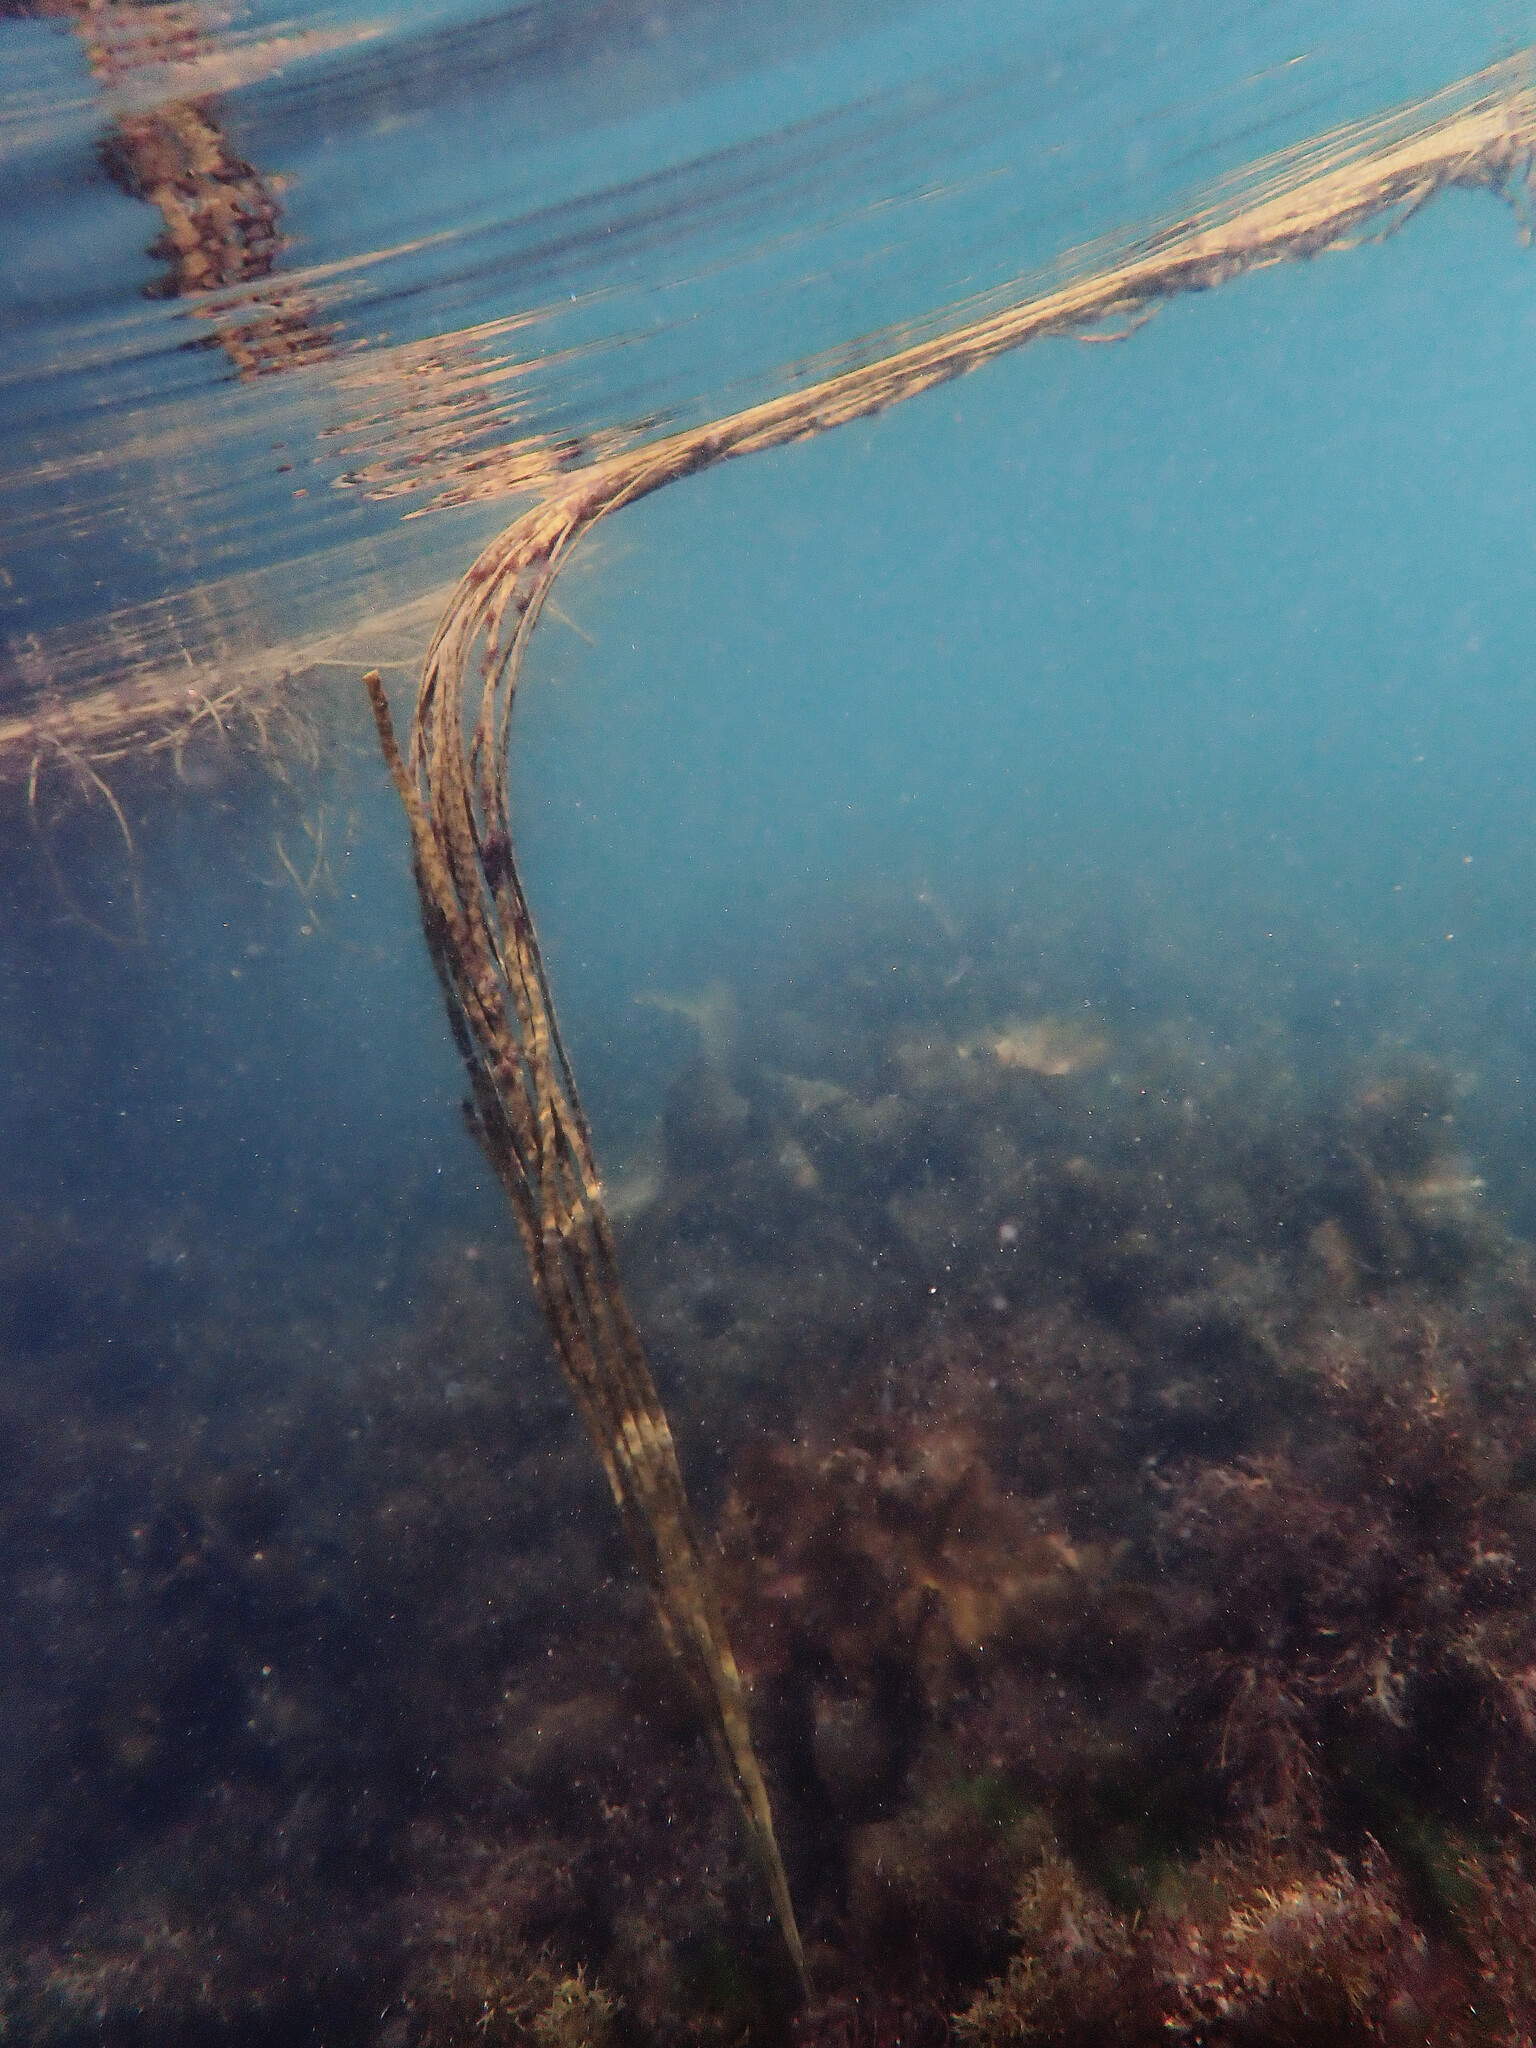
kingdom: Chromista
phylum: Ochrophyta
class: Phaeophyceae
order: Fucales
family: Himanthaliaceae
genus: Himanthalia
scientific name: Himanthalia elongata
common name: Sea-thong
